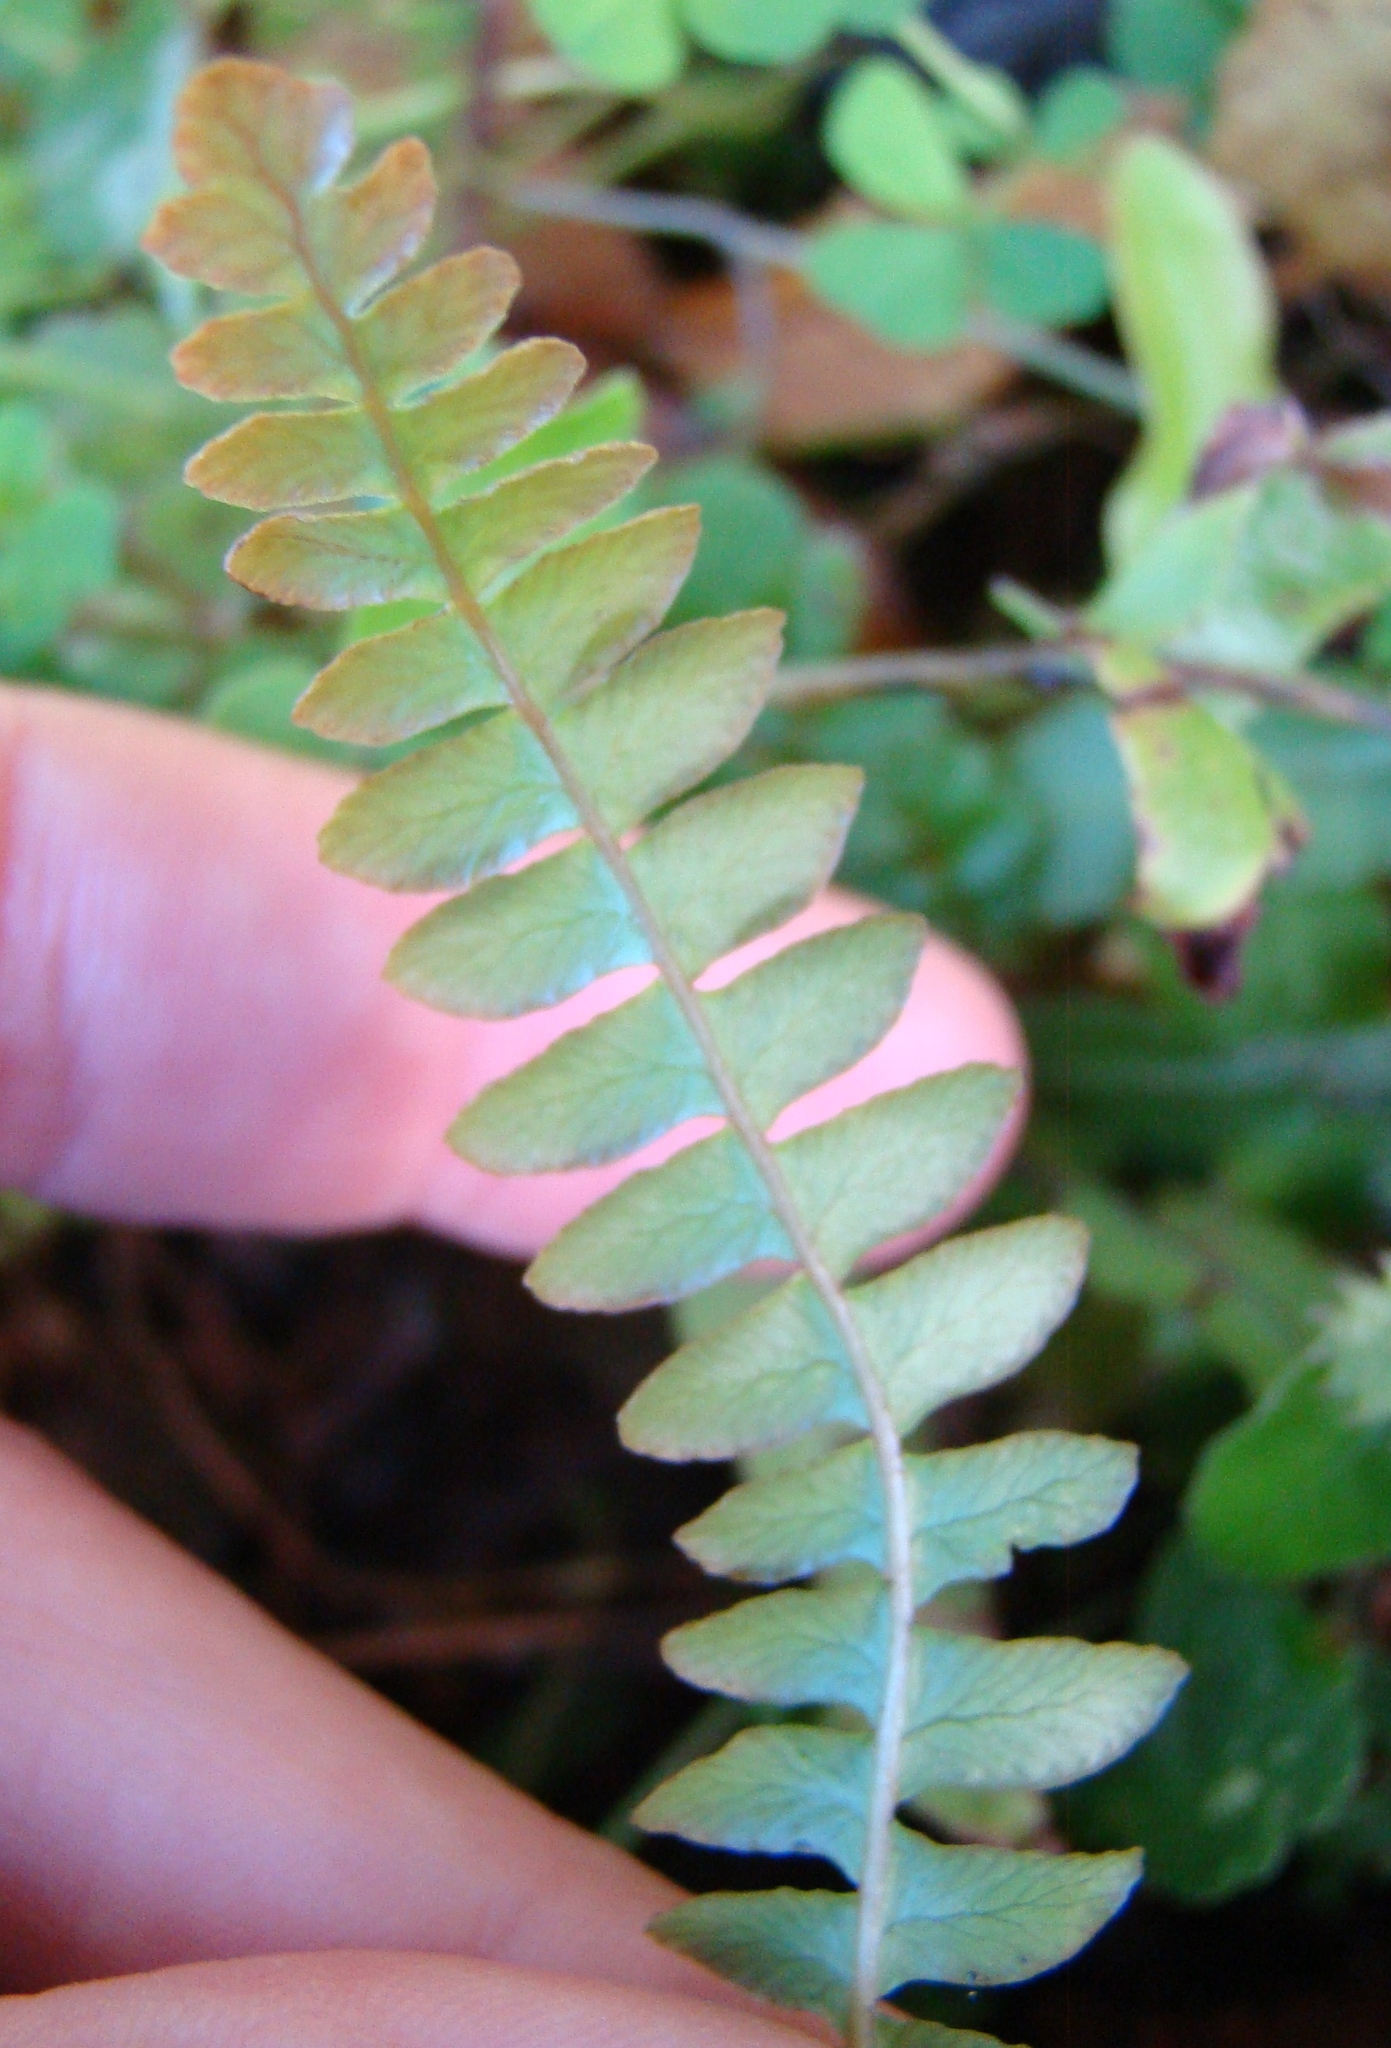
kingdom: Plantae
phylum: Tracheophyta
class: Polypodiopsida
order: Polypodiales
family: Blechnaceae
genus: Austroblechnum
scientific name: Austroblechnum penna-marina
